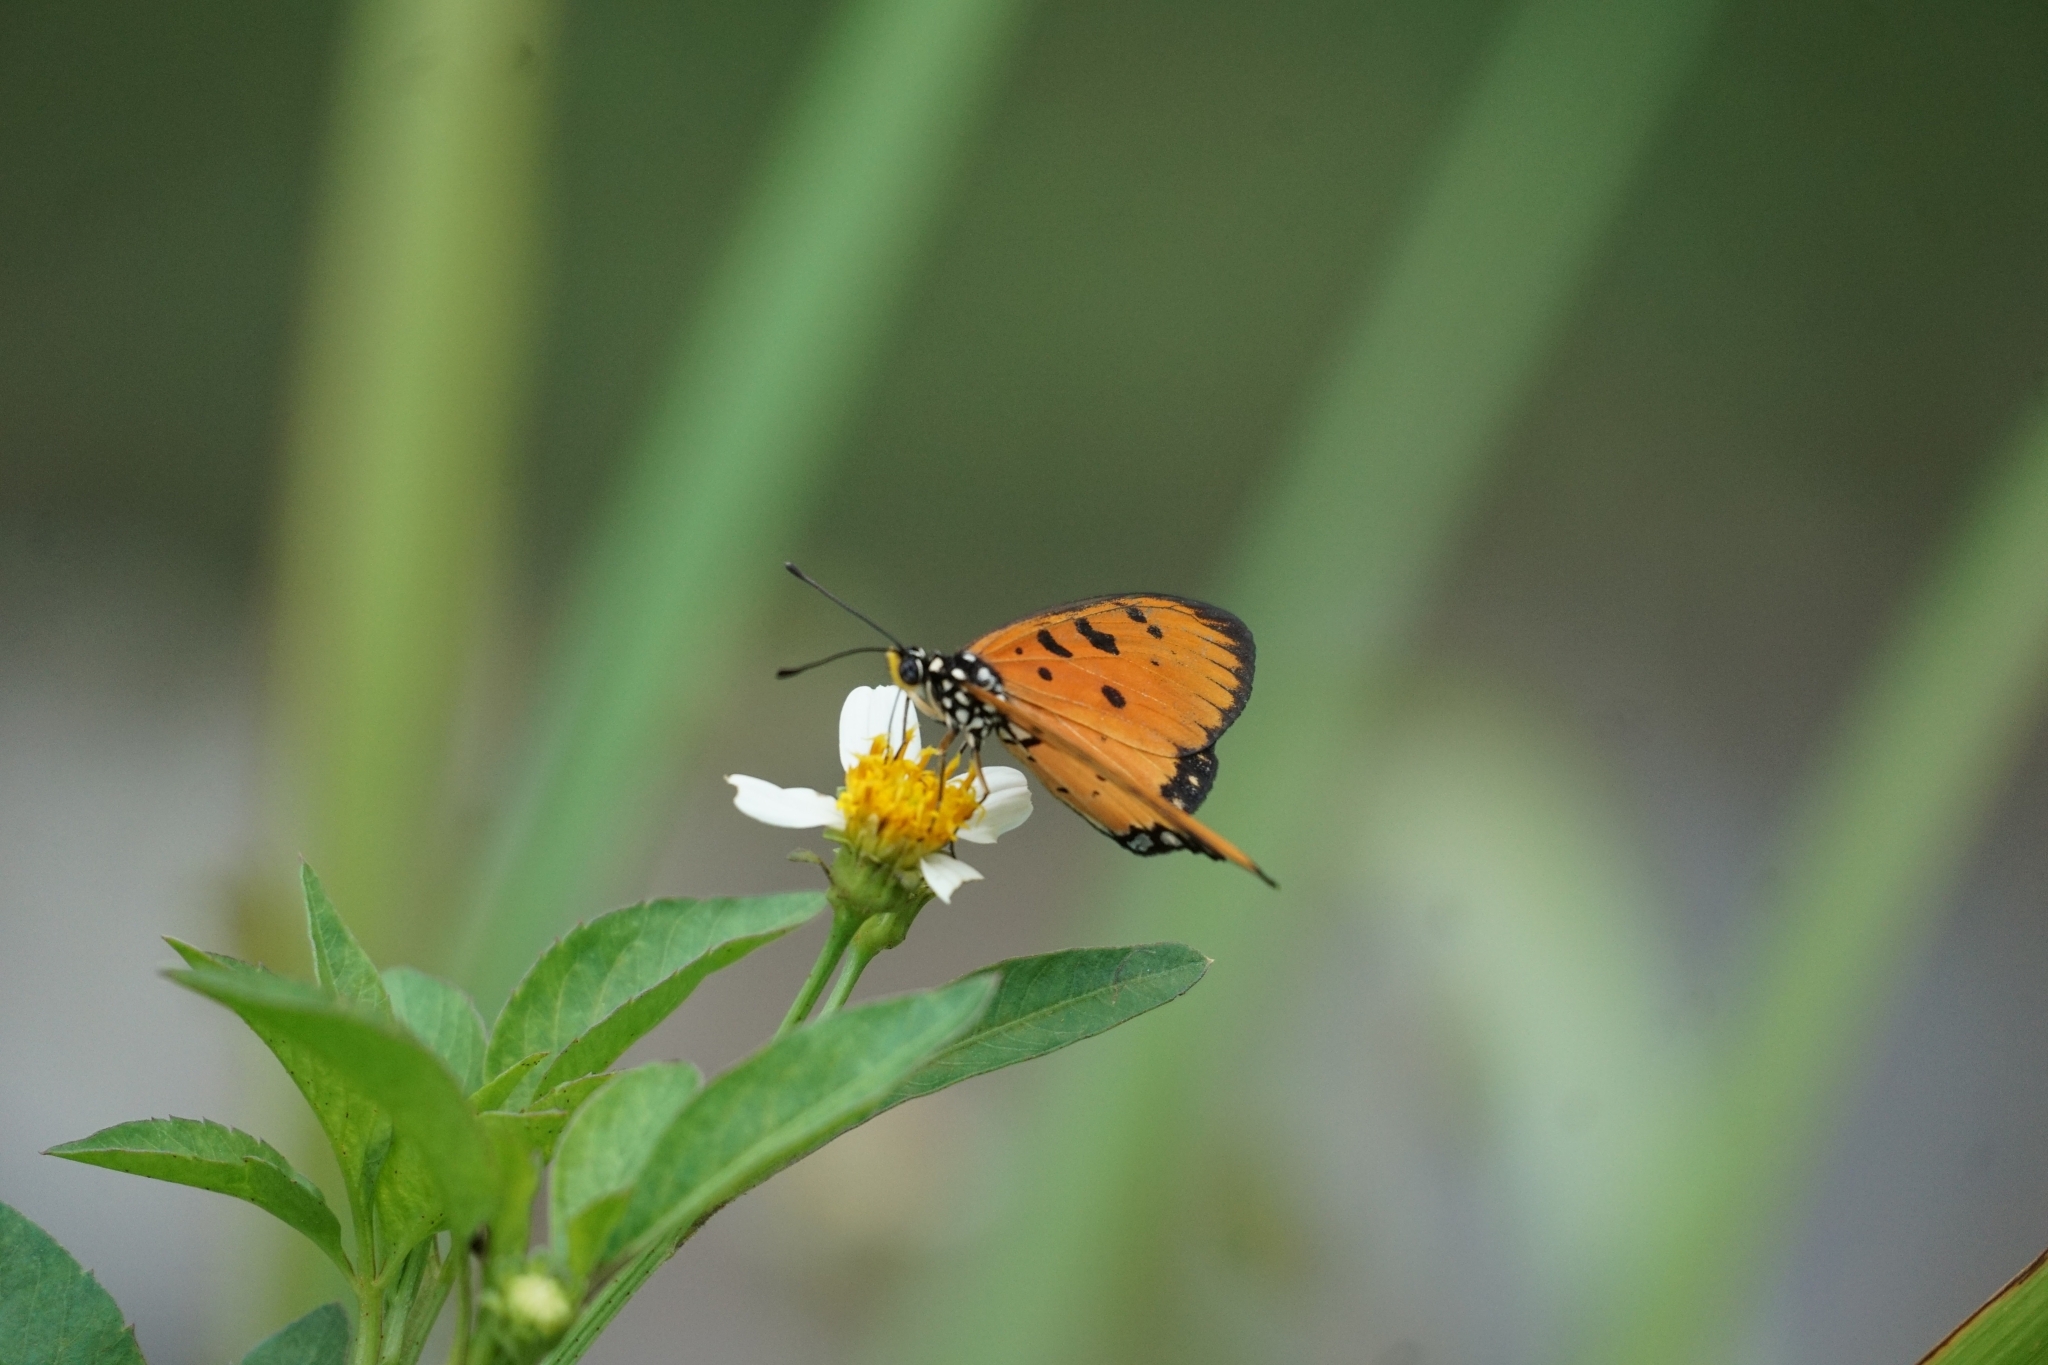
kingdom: Animalia
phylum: Arthropoda
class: Insecta
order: Lepidoptera
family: Nymphalidae
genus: Acraea
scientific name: Acraea terpsicore
